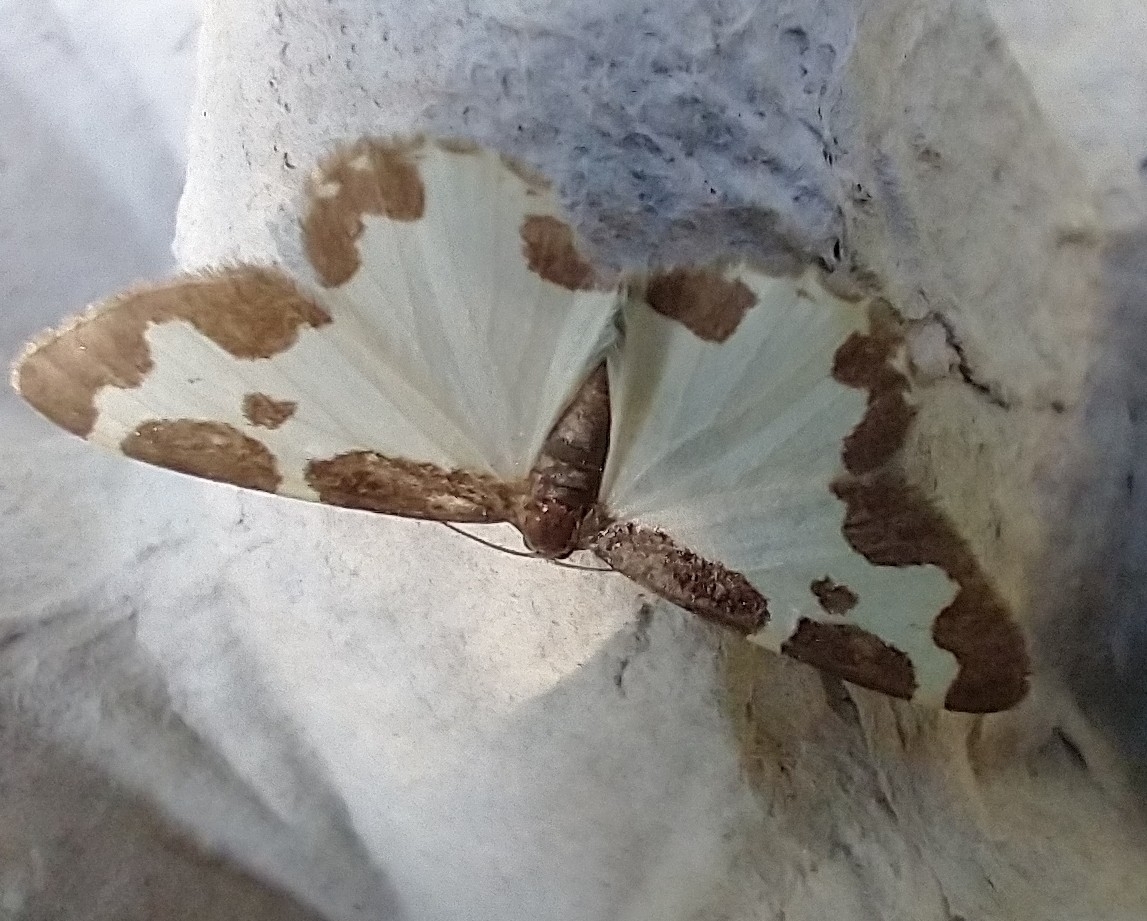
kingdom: Animalia
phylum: Arthropoda
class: Insecta
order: Lepidoptera
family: Geometridae
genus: Lomaspilis
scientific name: Lomaspilis marginata
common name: Clouded border
